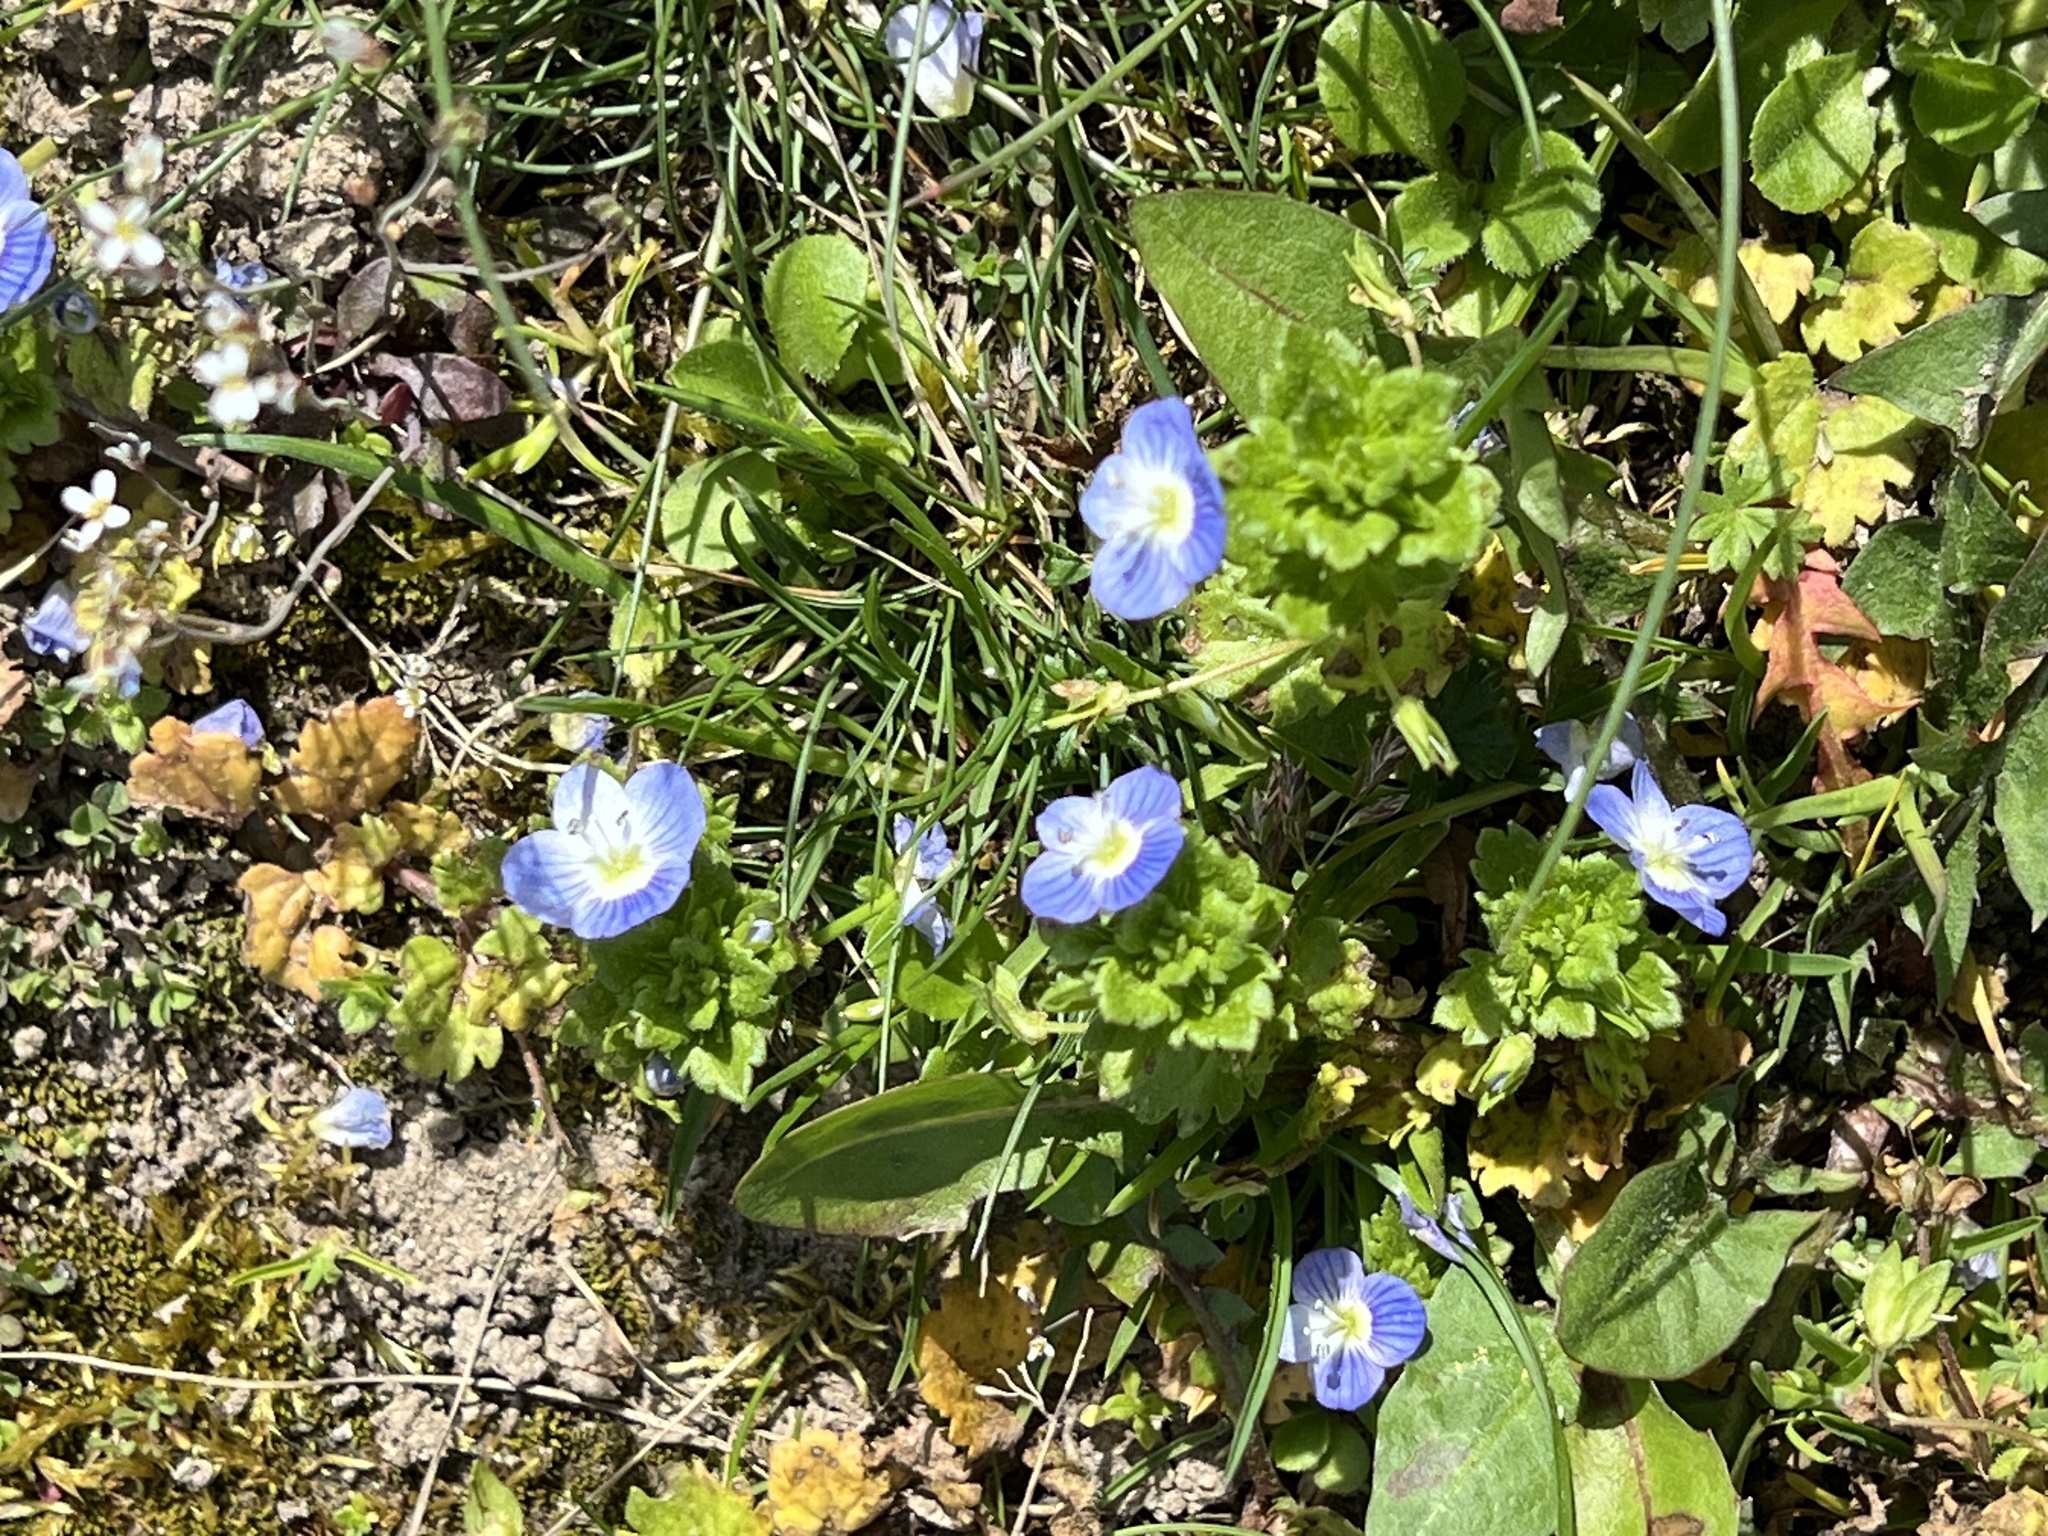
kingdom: Plantae
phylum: Tracheophyta
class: Magnoliopsida
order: Lamiales
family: Plantaginaceae
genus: Veronica
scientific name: Veronica persica
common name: Common field-speedwell
